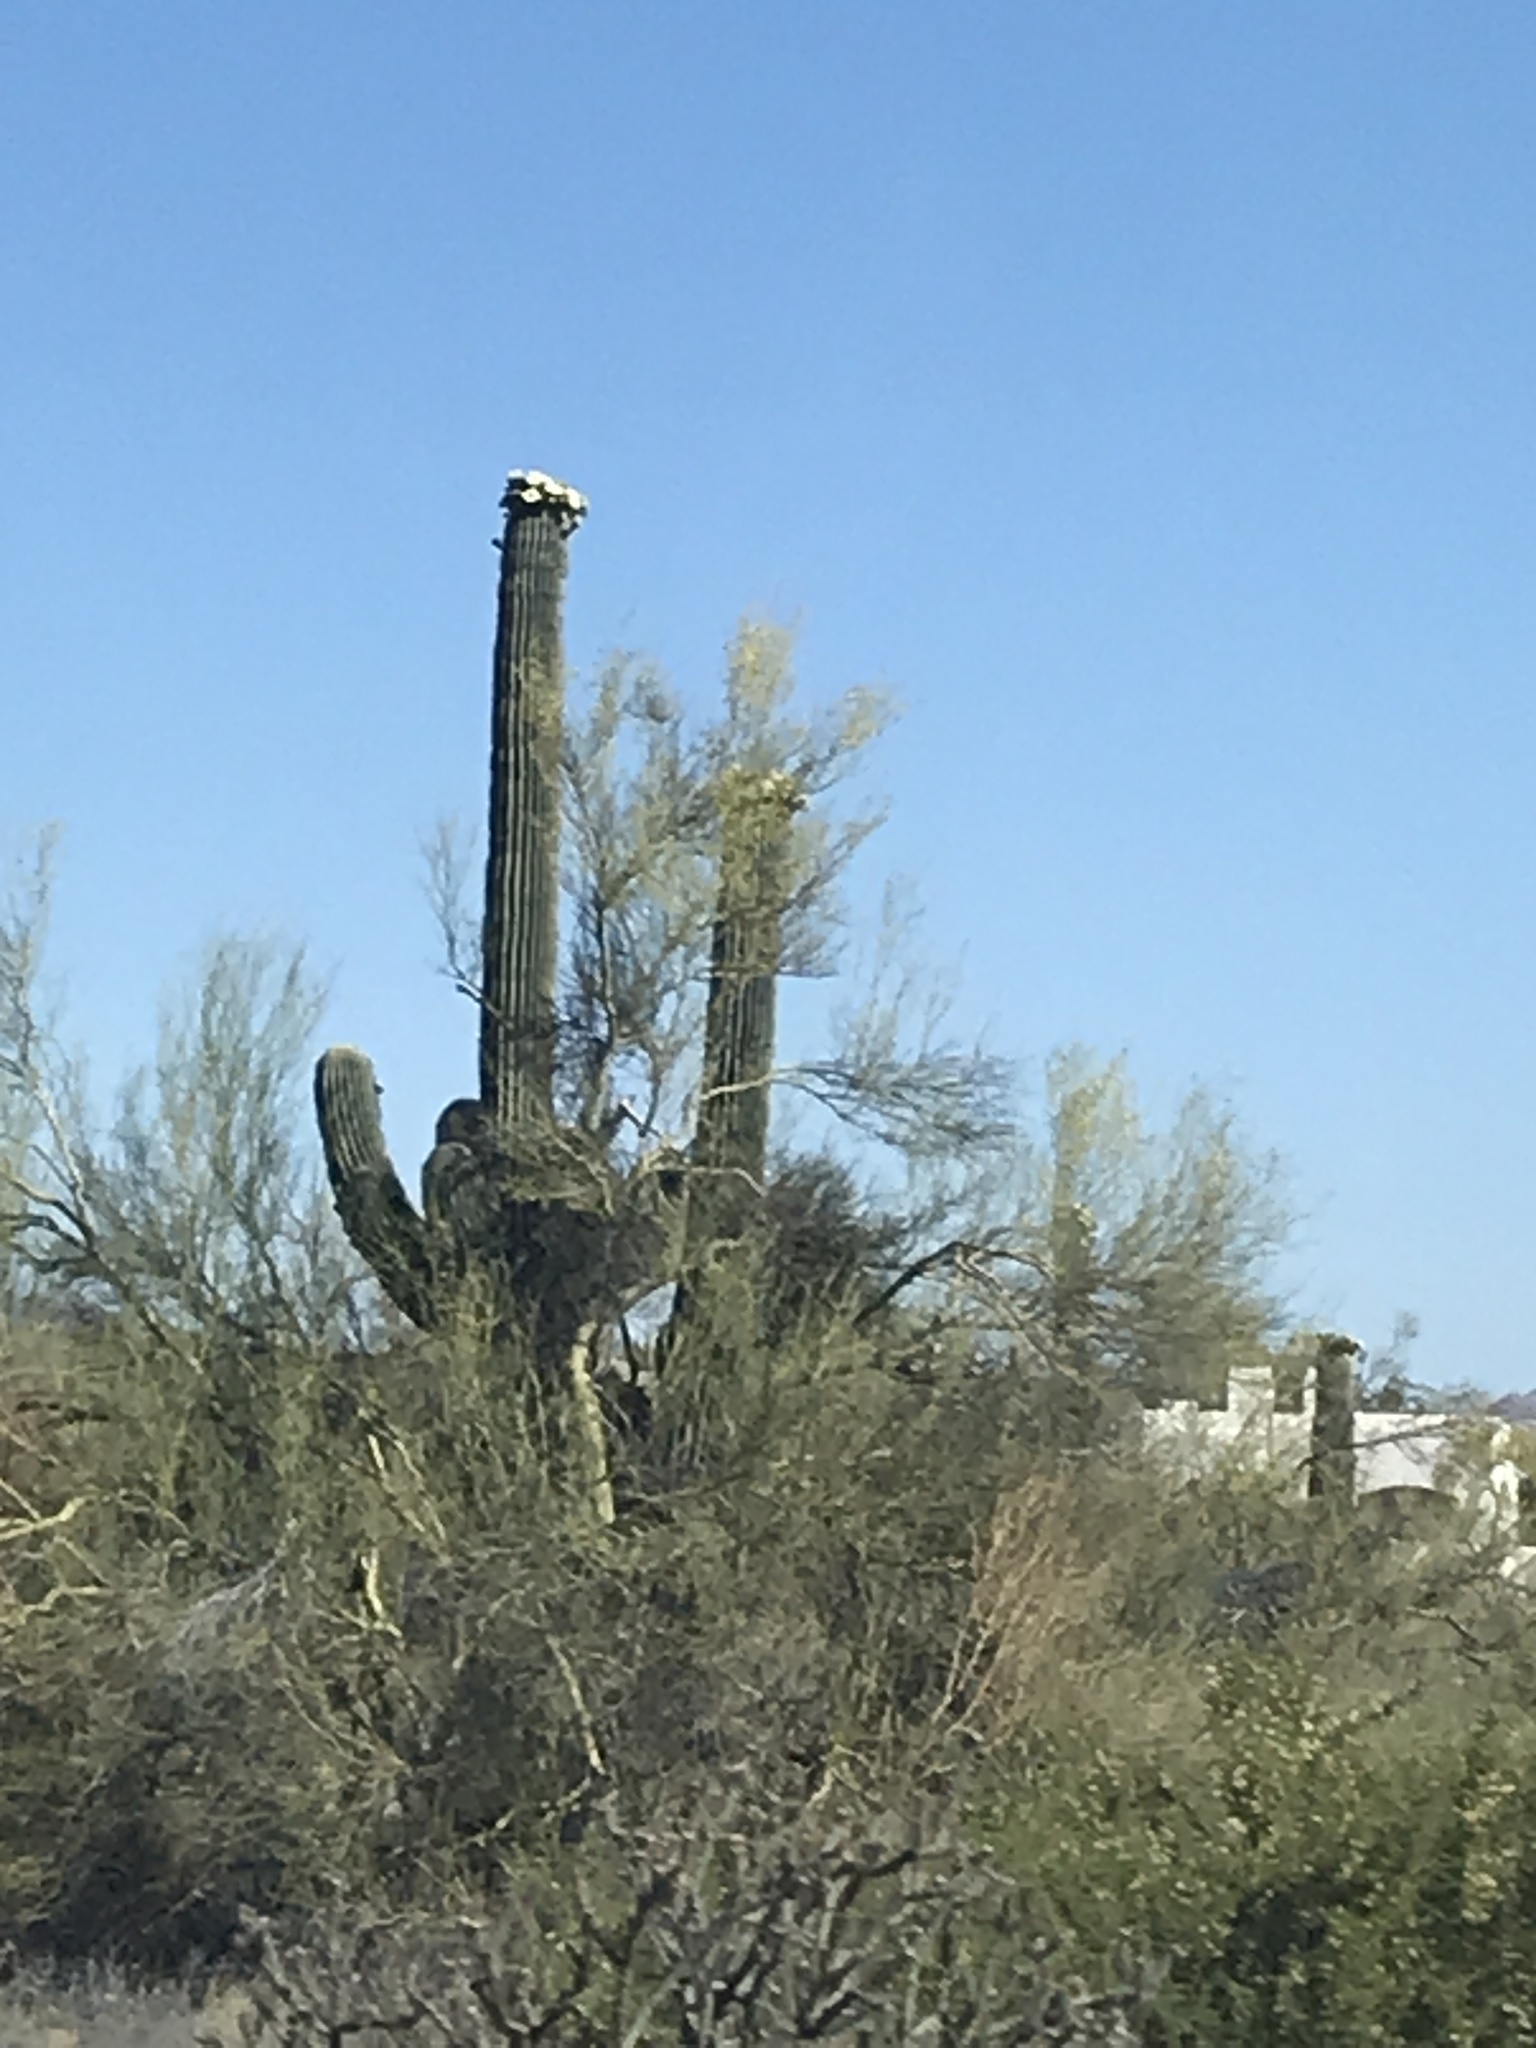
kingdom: Plantae
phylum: Tracheophyta
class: Magnoliopsida
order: Caryophyllales
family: Cactaceae
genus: Carnegiea
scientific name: Carnegiea gigantea
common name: Saguaro
